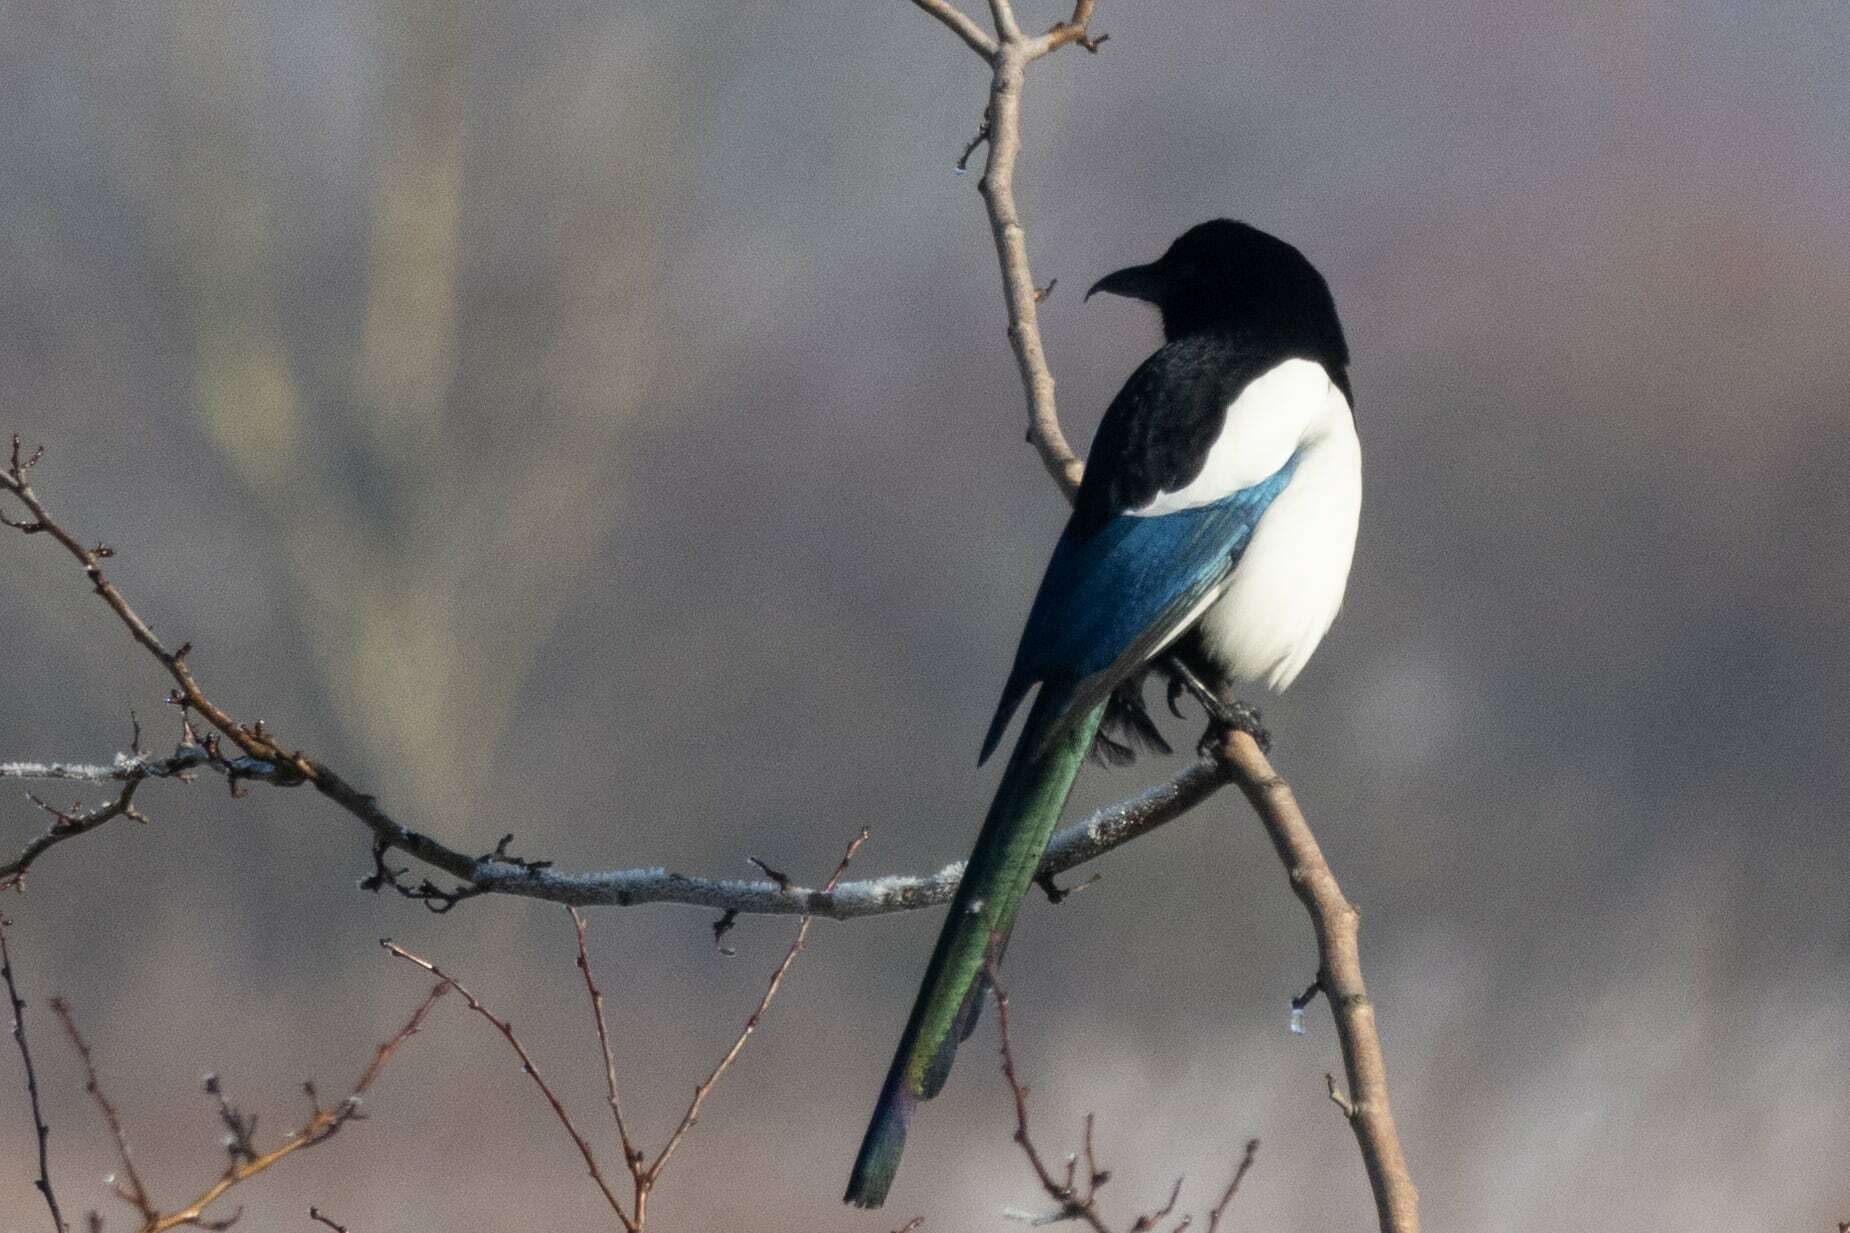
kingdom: Animalia
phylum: Chordata
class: Aves
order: Passeriformes
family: Corvidae
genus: Pica
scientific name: Pica pica
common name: Eurasian magpie
